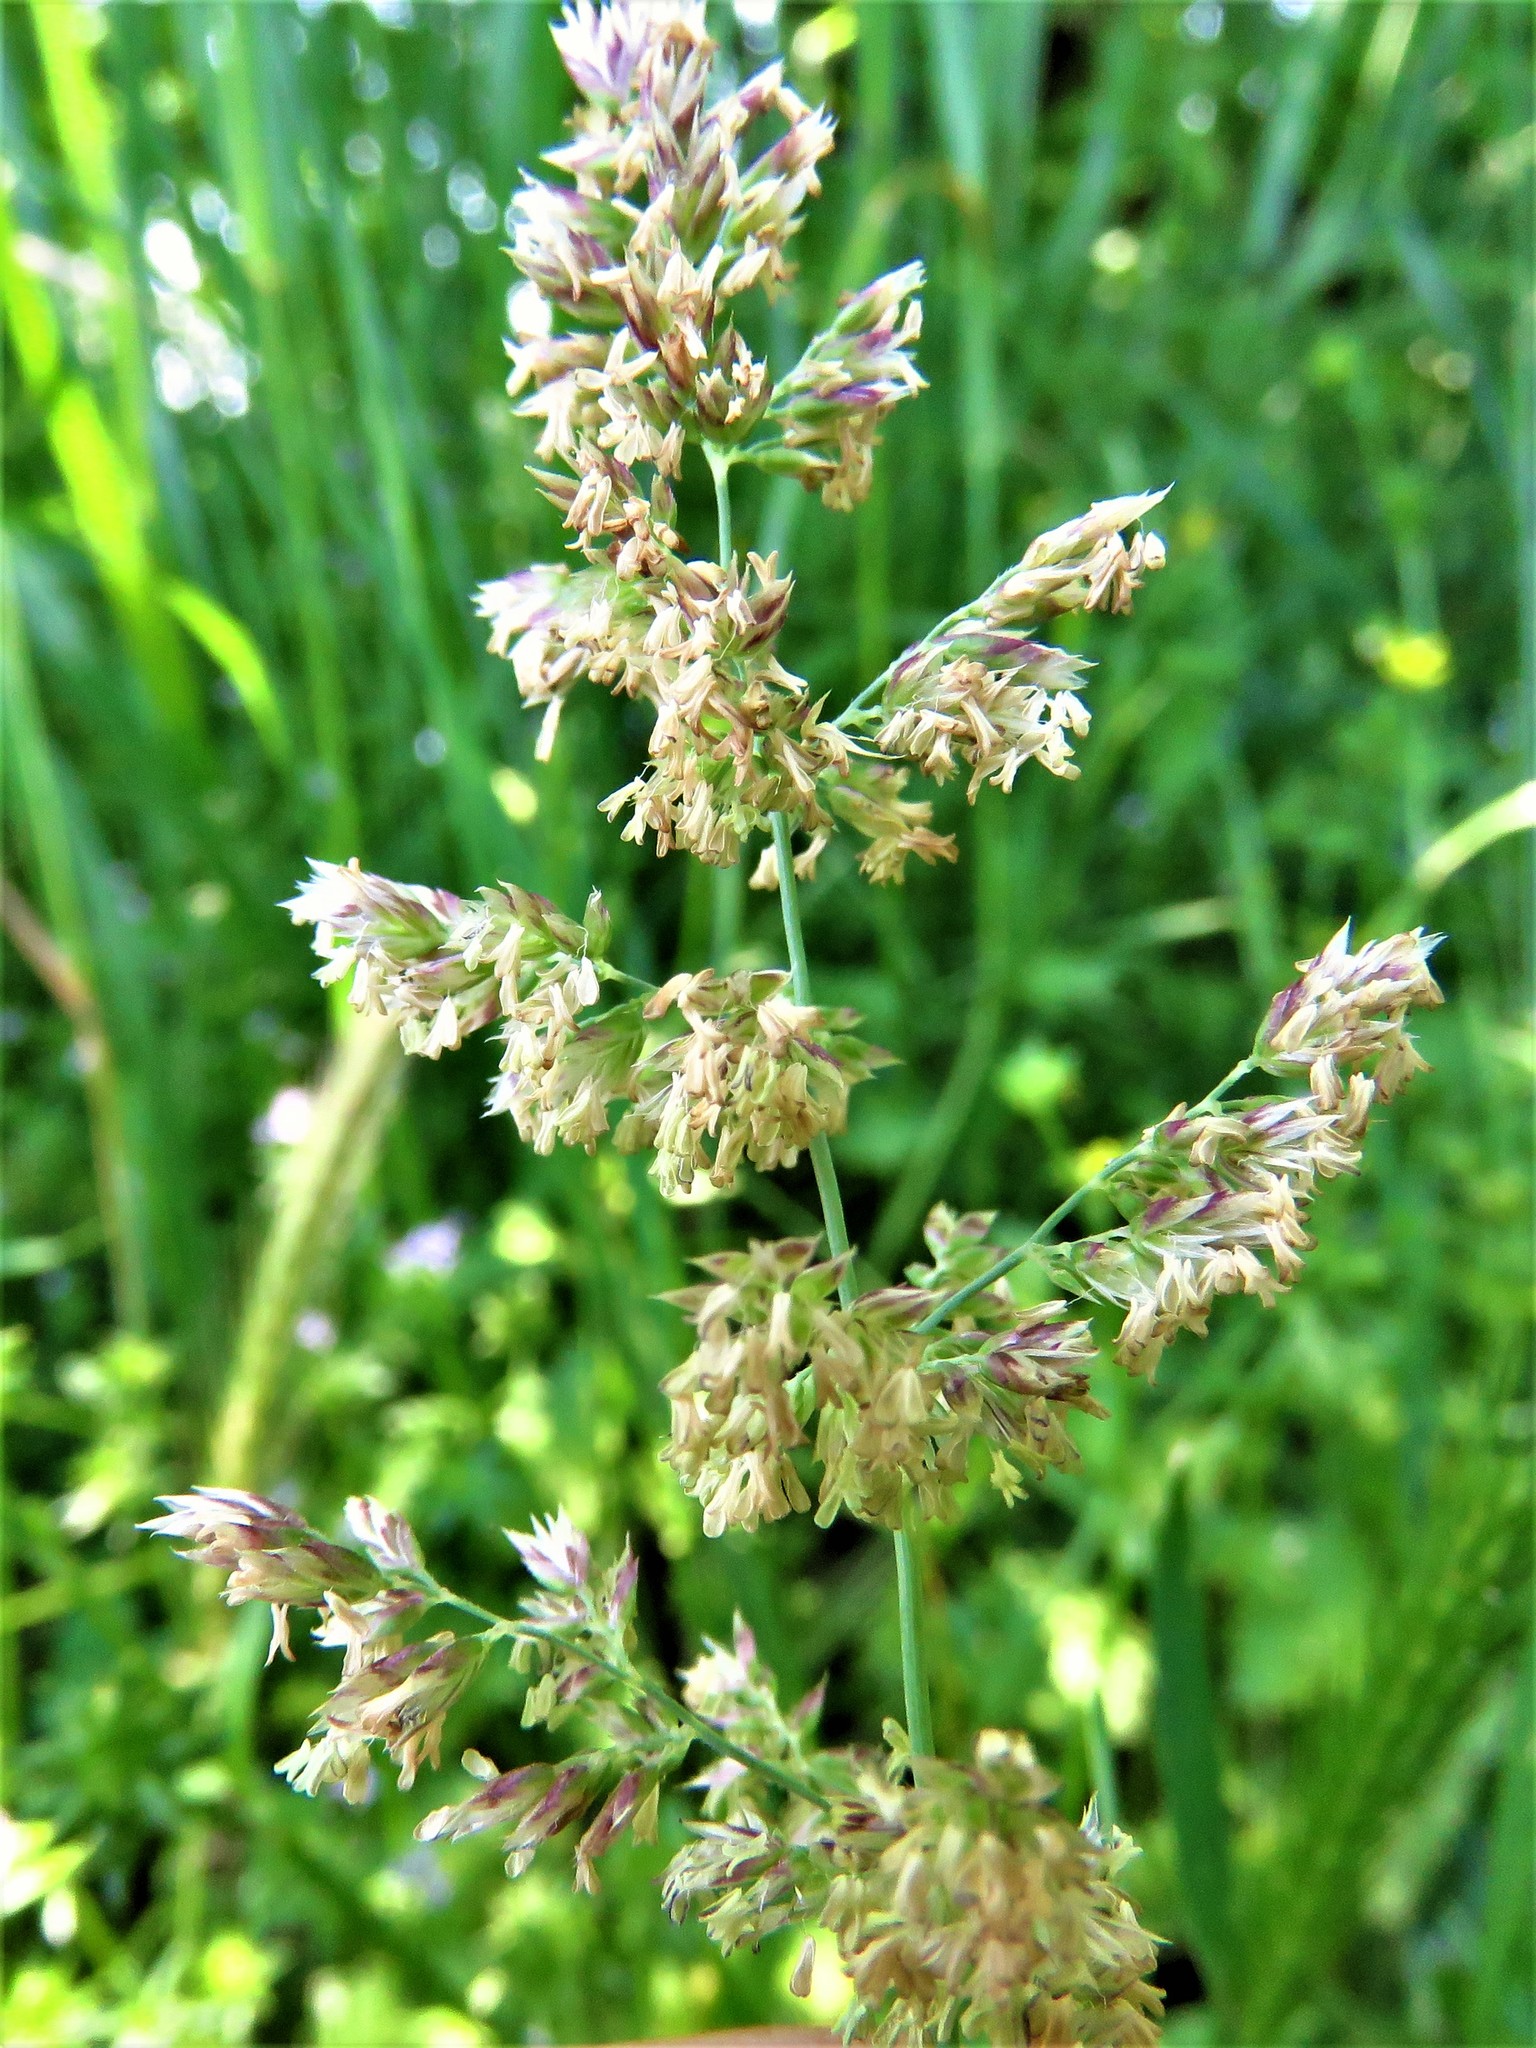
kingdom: Plantae
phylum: Tracheophyta
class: Liliopsida
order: Poales
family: Poaceae
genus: Poa
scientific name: Poa arachnifera
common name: Texas bluegrass
